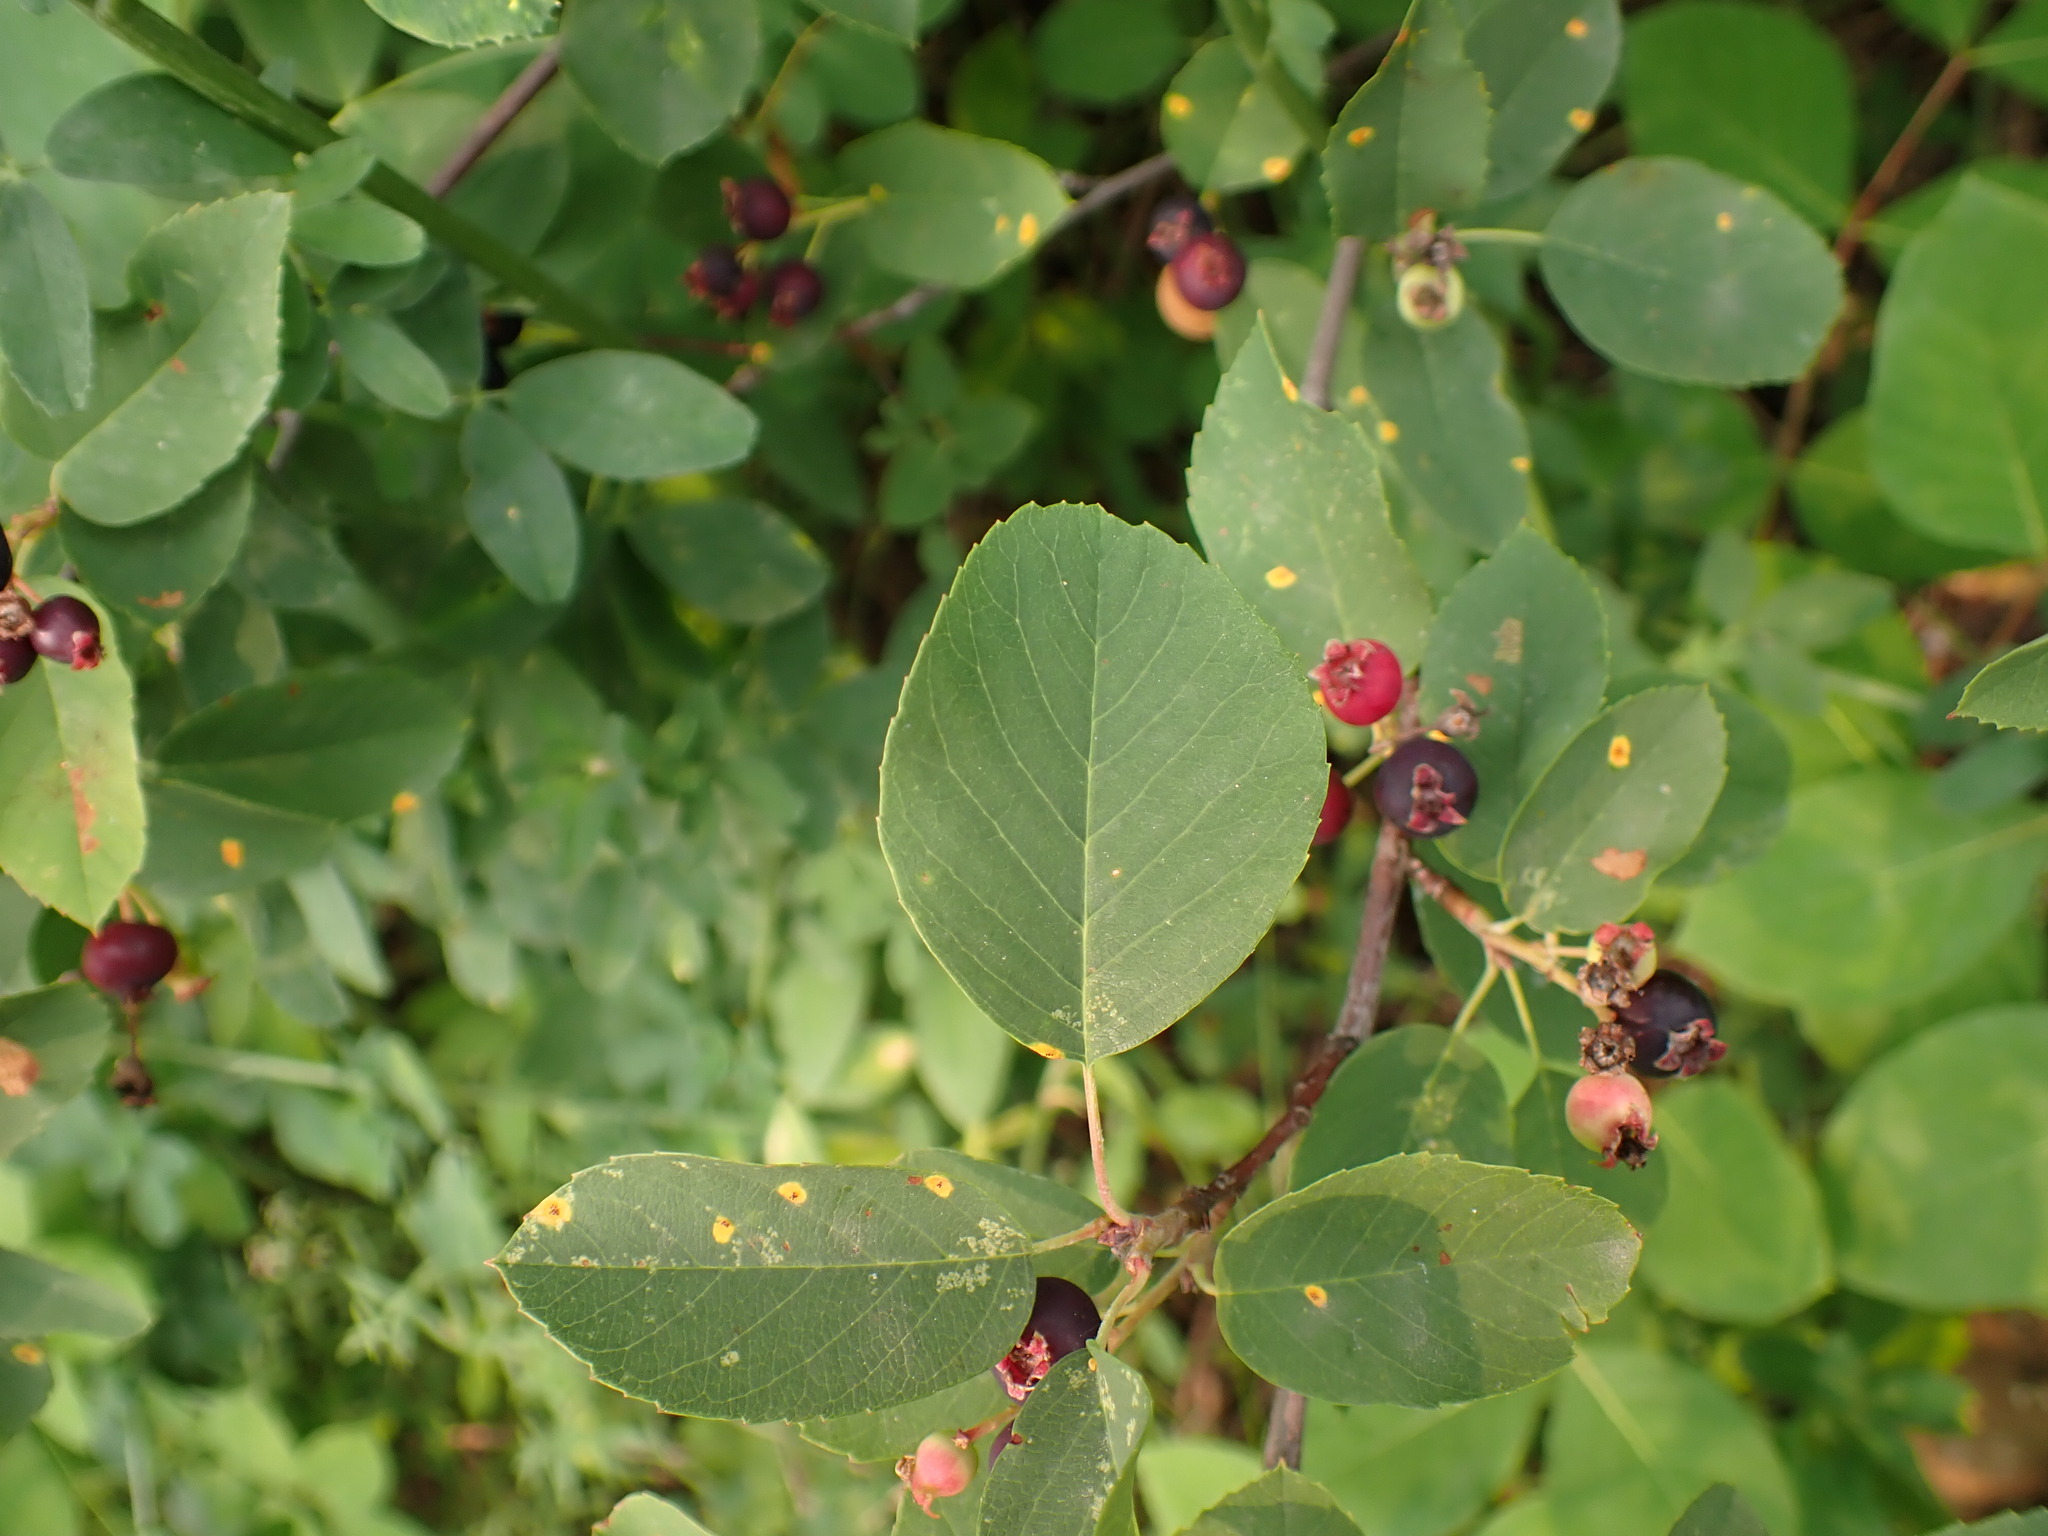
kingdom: Plantae
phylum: Tracheophyta
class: Magnoliopsida
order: Rosales
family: Rosaceae
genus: Amelanchier
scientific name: Amelanchier alnifolia
